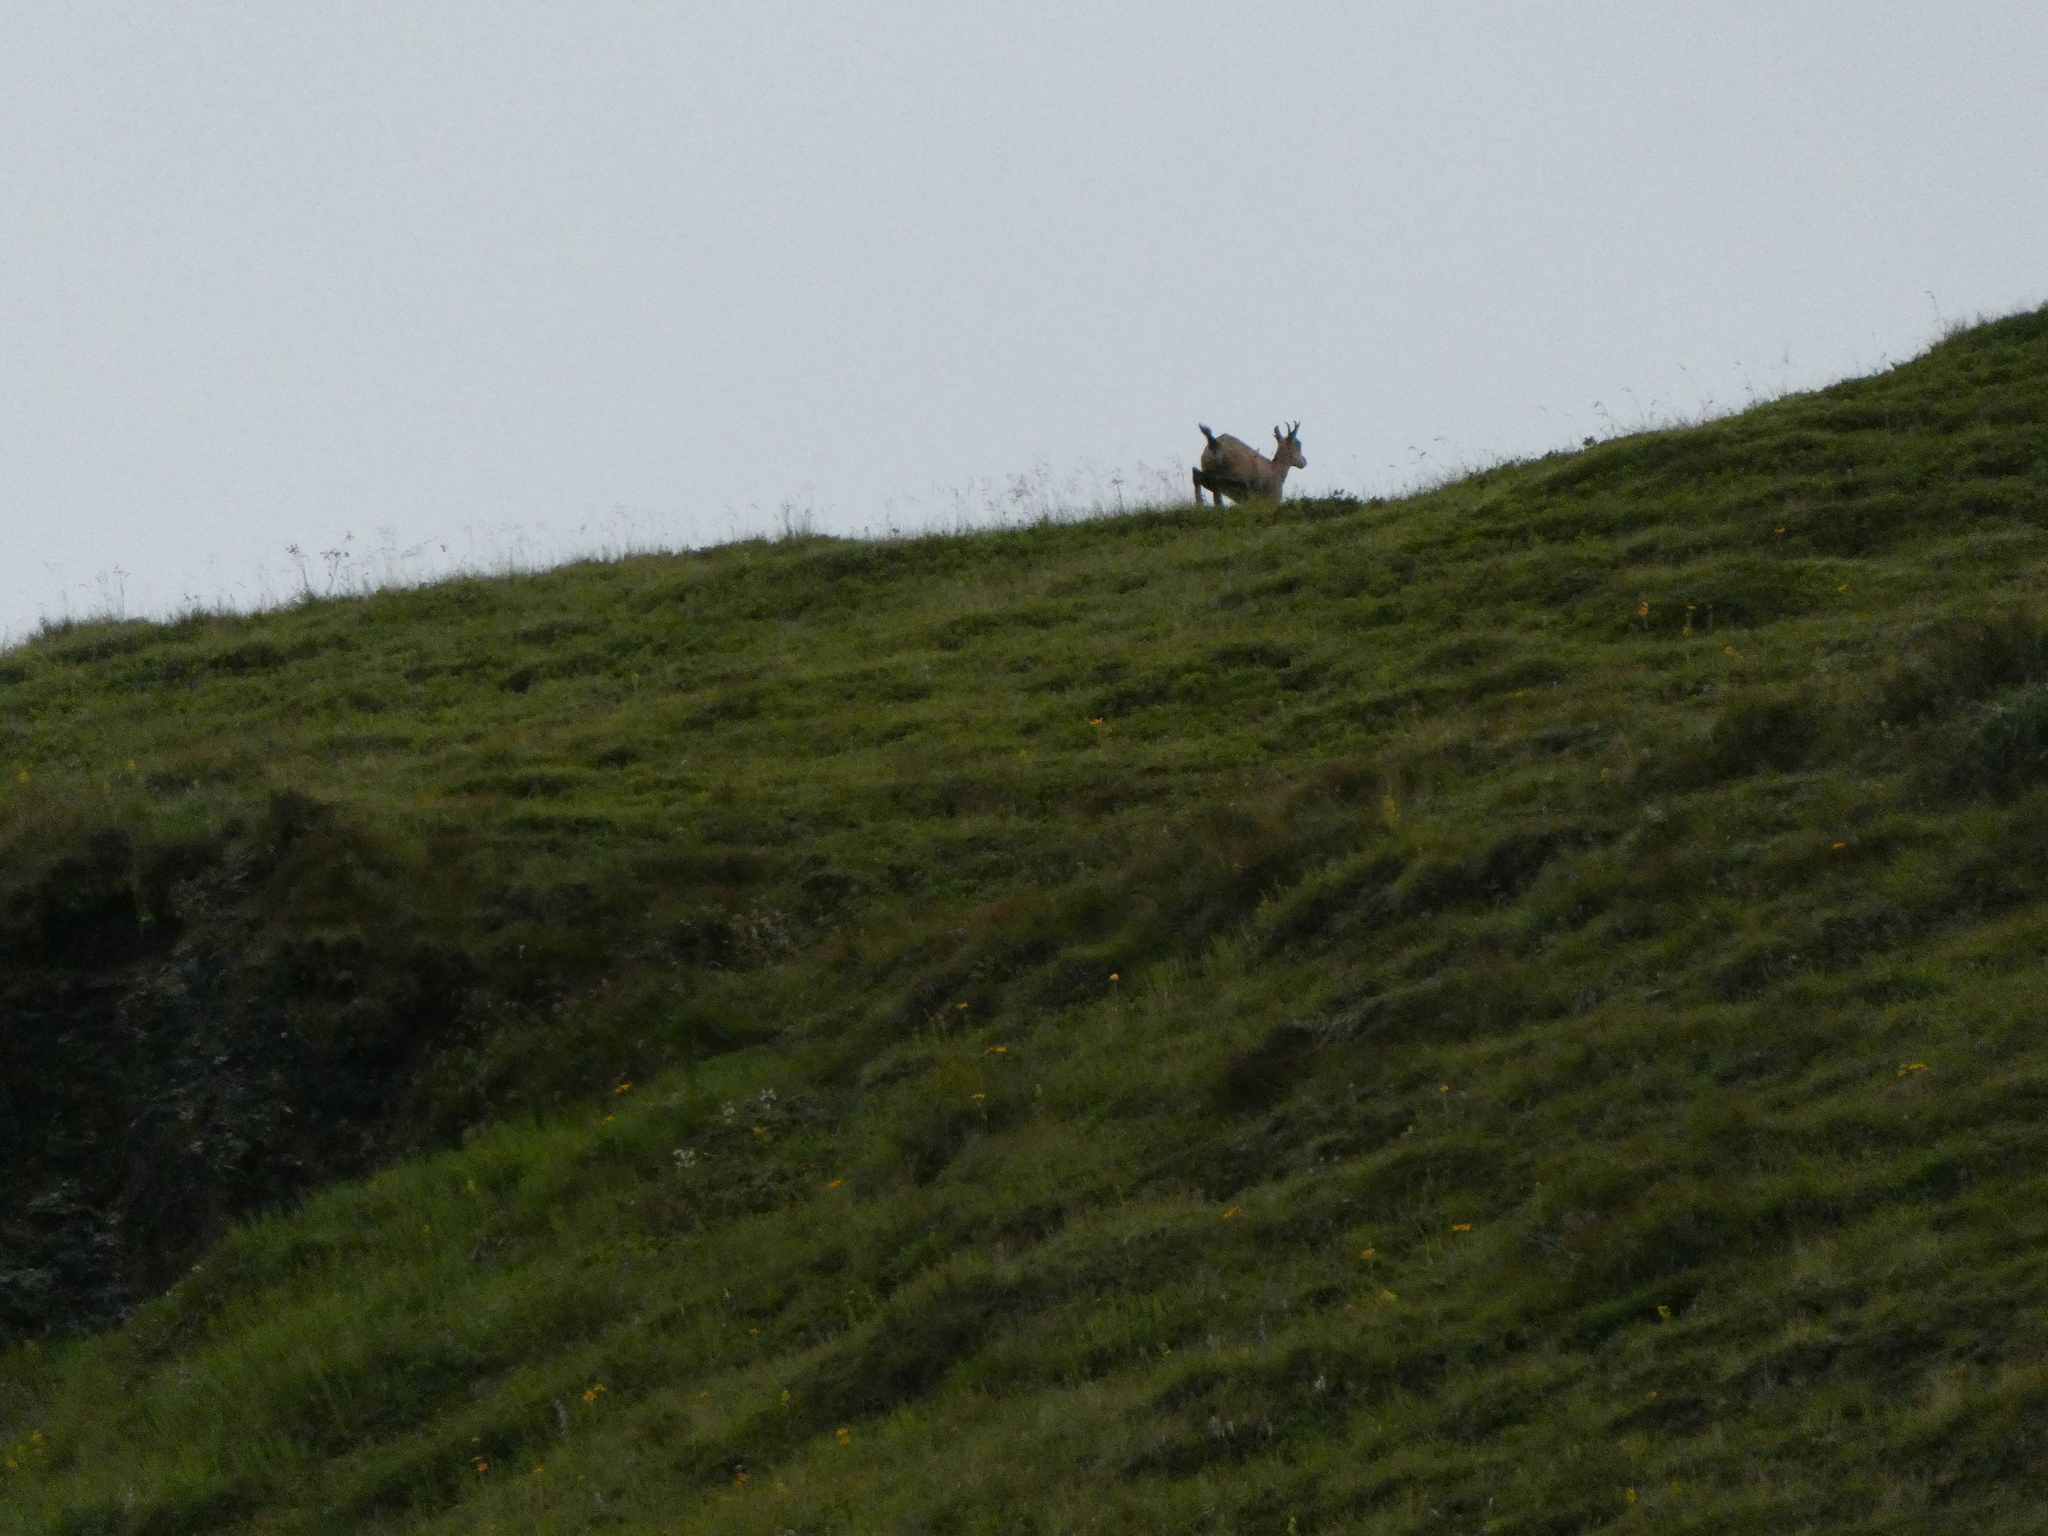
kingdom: Animalia
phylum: Chordata
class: Mammalia
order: Artiodactyla
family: Bovidae
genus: Rupicapra
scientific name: Rupicapra rupicapra
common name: Chamois
